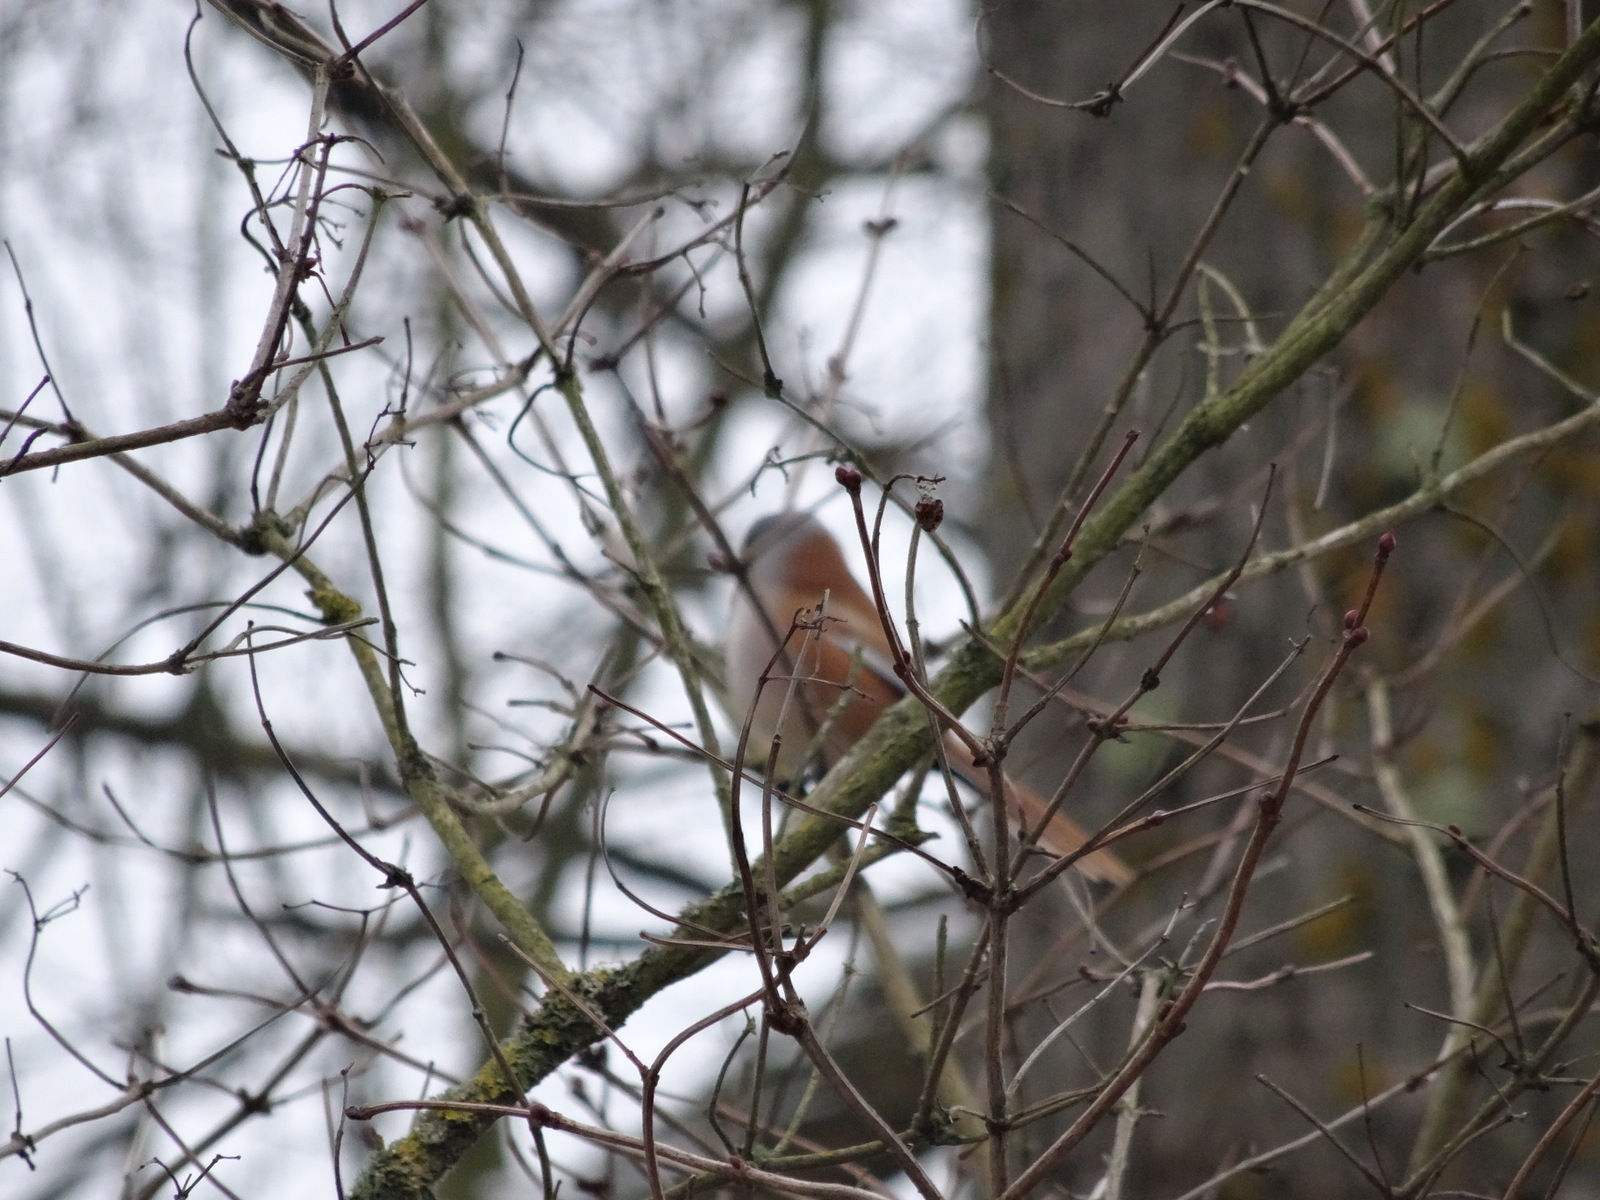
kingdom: Animalia
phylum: Chordata
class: Aves
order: Passeriformes
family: Panuridae
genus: Panurus
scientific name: Panurus biarmicus
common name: Bearded reedling
